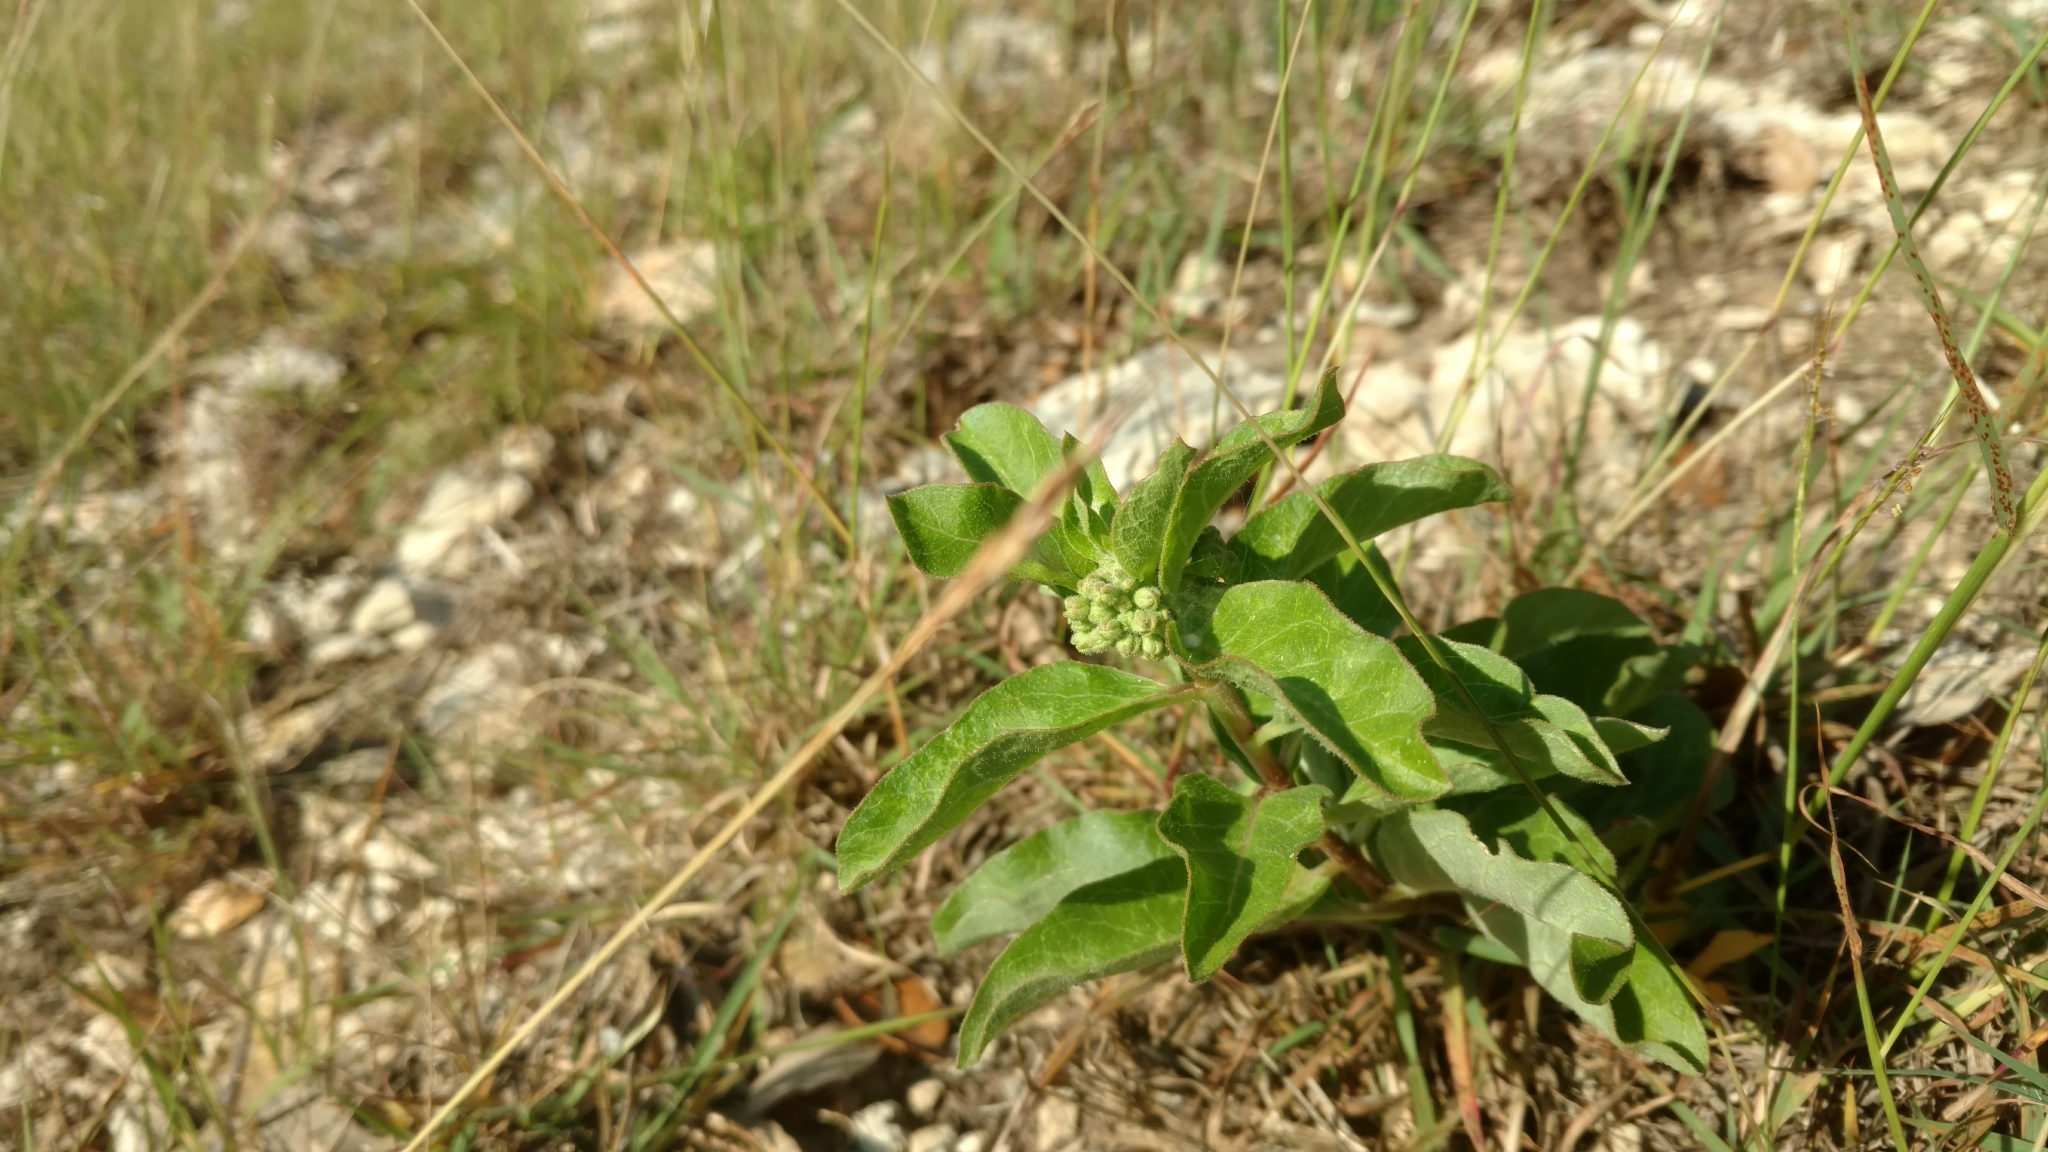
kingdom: Plantae
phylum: Tracheophyta
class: Magnoliopsida
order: Gentianales
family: Apocynaceae
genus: Asclepias
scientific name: Asclepias oenotheroides
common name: Zizotes milkweed
